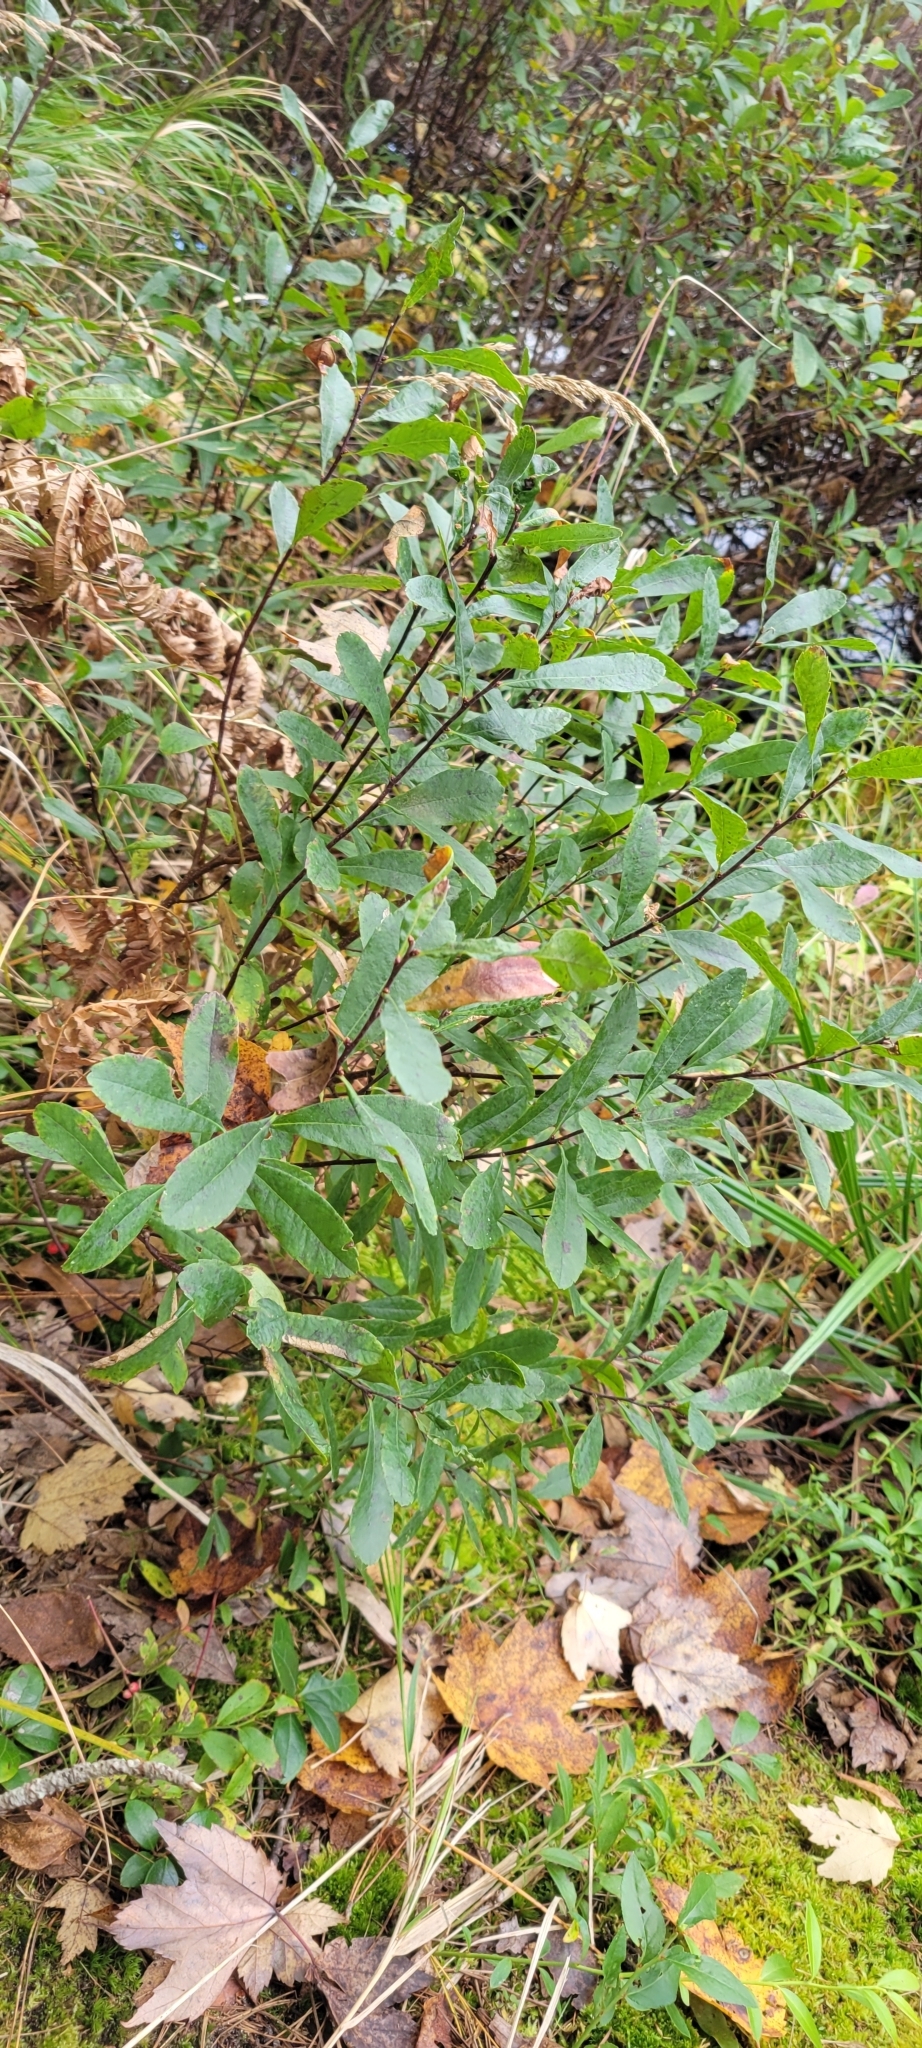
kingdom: Plantae
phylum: Tracheophyta
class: Magnoliopsida
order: Fagales
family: Myricaceae
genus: Myrica
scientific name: Myrica gale
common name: Sweet gale
